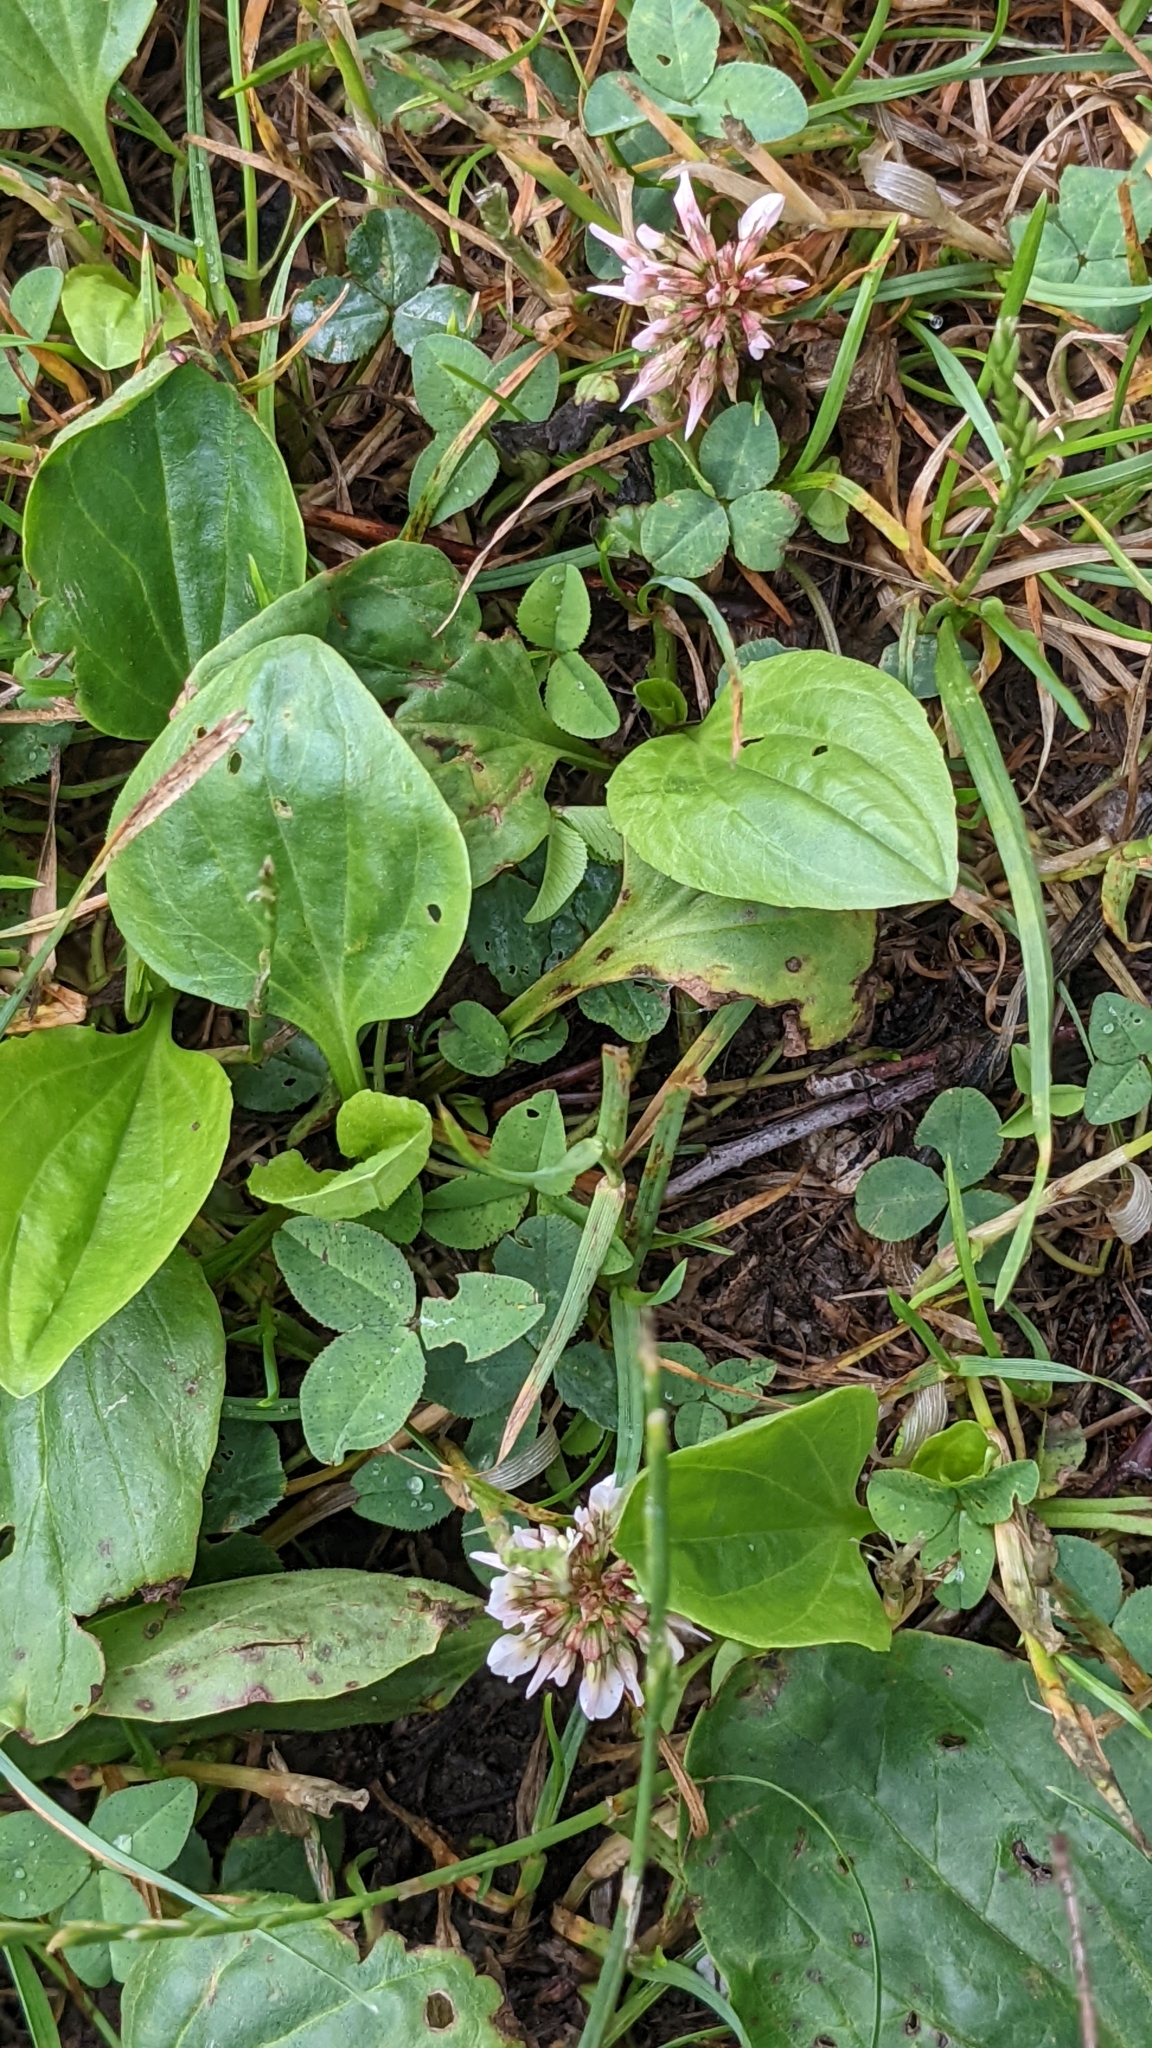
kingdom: Plantae
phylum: Tracheophyta
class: Magnoliopsida
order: Fabales
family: Fabaceae
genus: Trifolium
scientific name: Trifolium repens
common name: White clover
